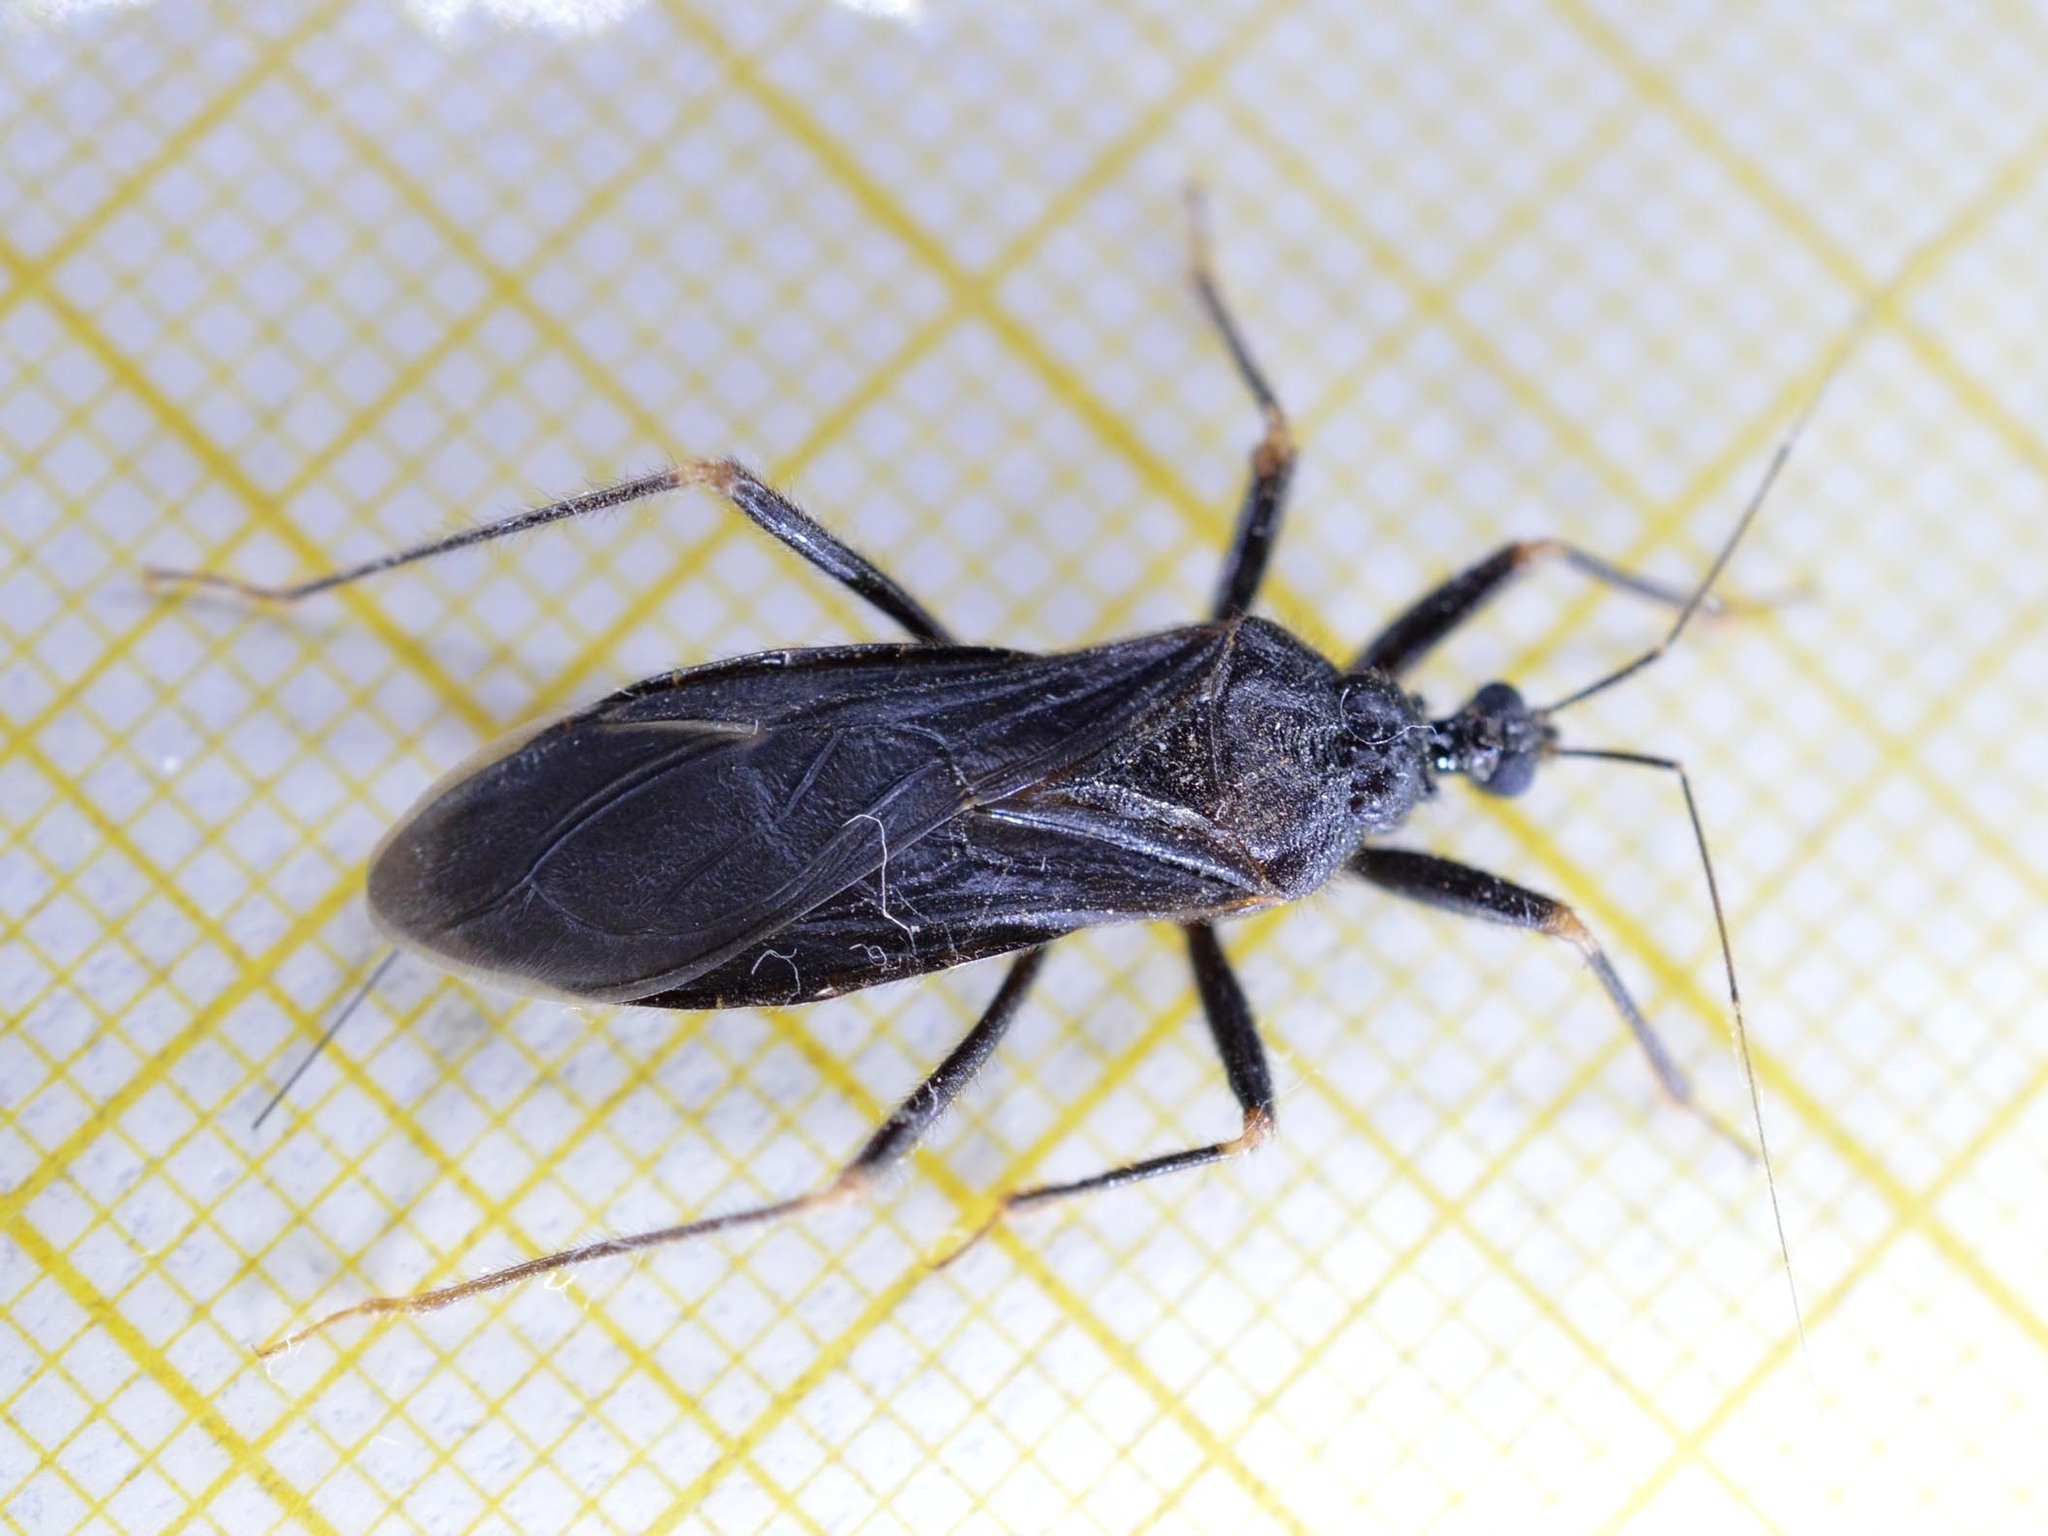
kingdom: Animalia
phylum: Arthropoda
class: Insecta
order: Hemiptera
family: Reduviidae
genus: Reduvius
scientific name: Reduvius personatus
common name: Masked hunter
